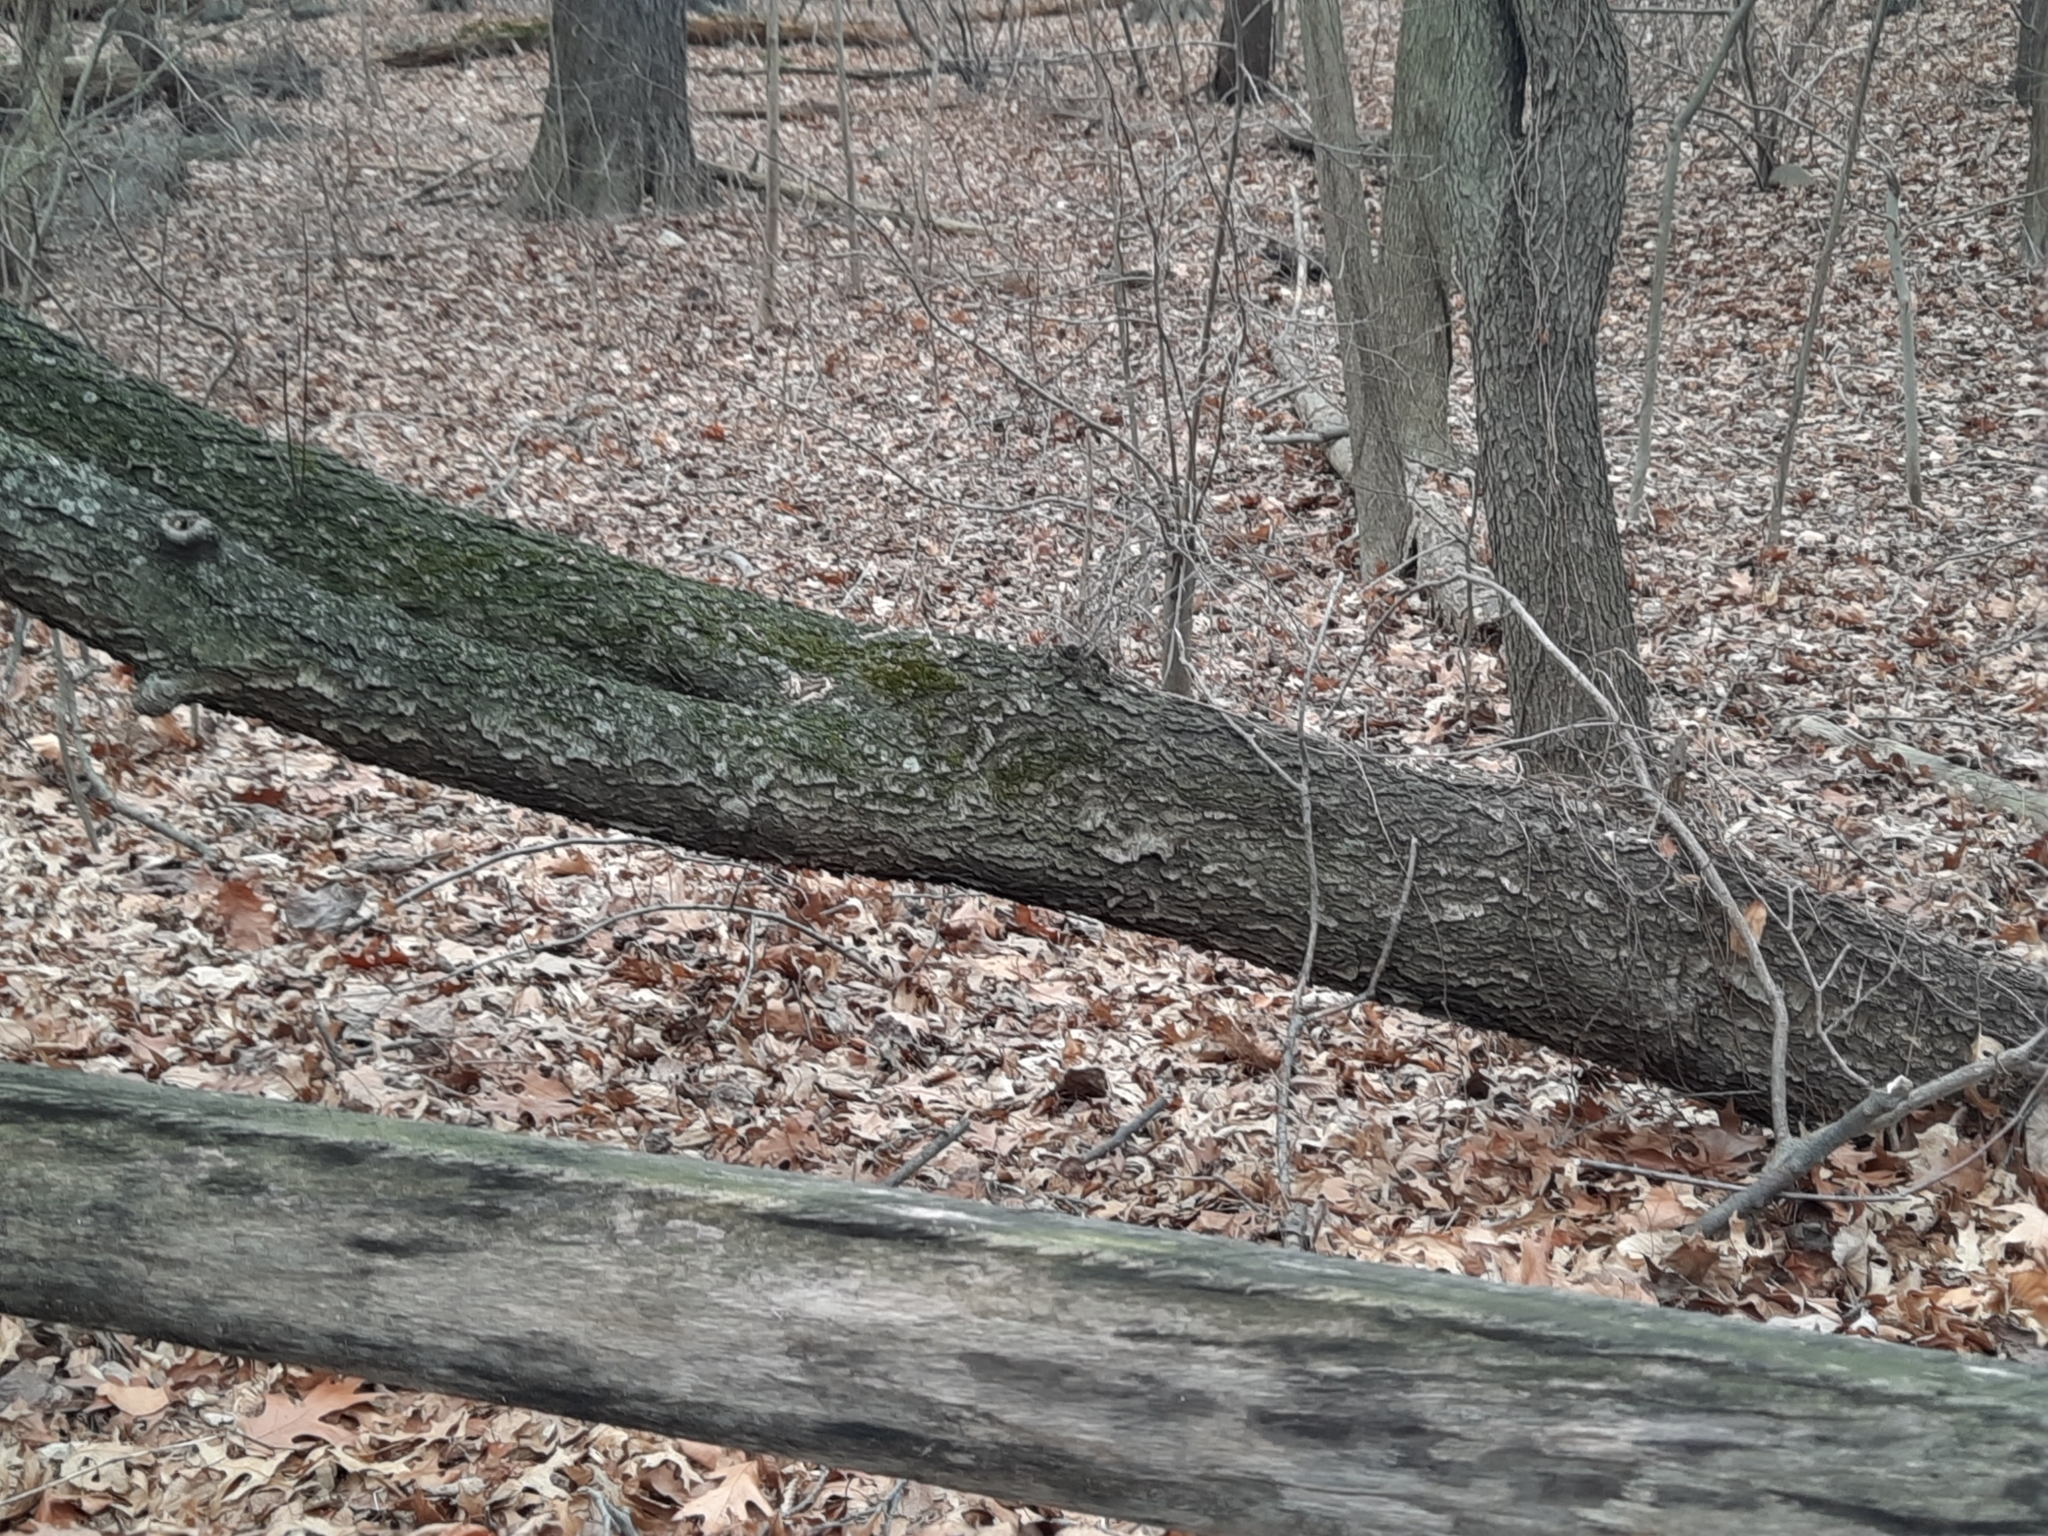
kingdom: Plantae
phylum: Tracheophyta
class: Magnoliopsida
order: Rosales
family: Rosaceae
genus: Prunus
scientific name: Prunus serotina
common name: Black cherry
